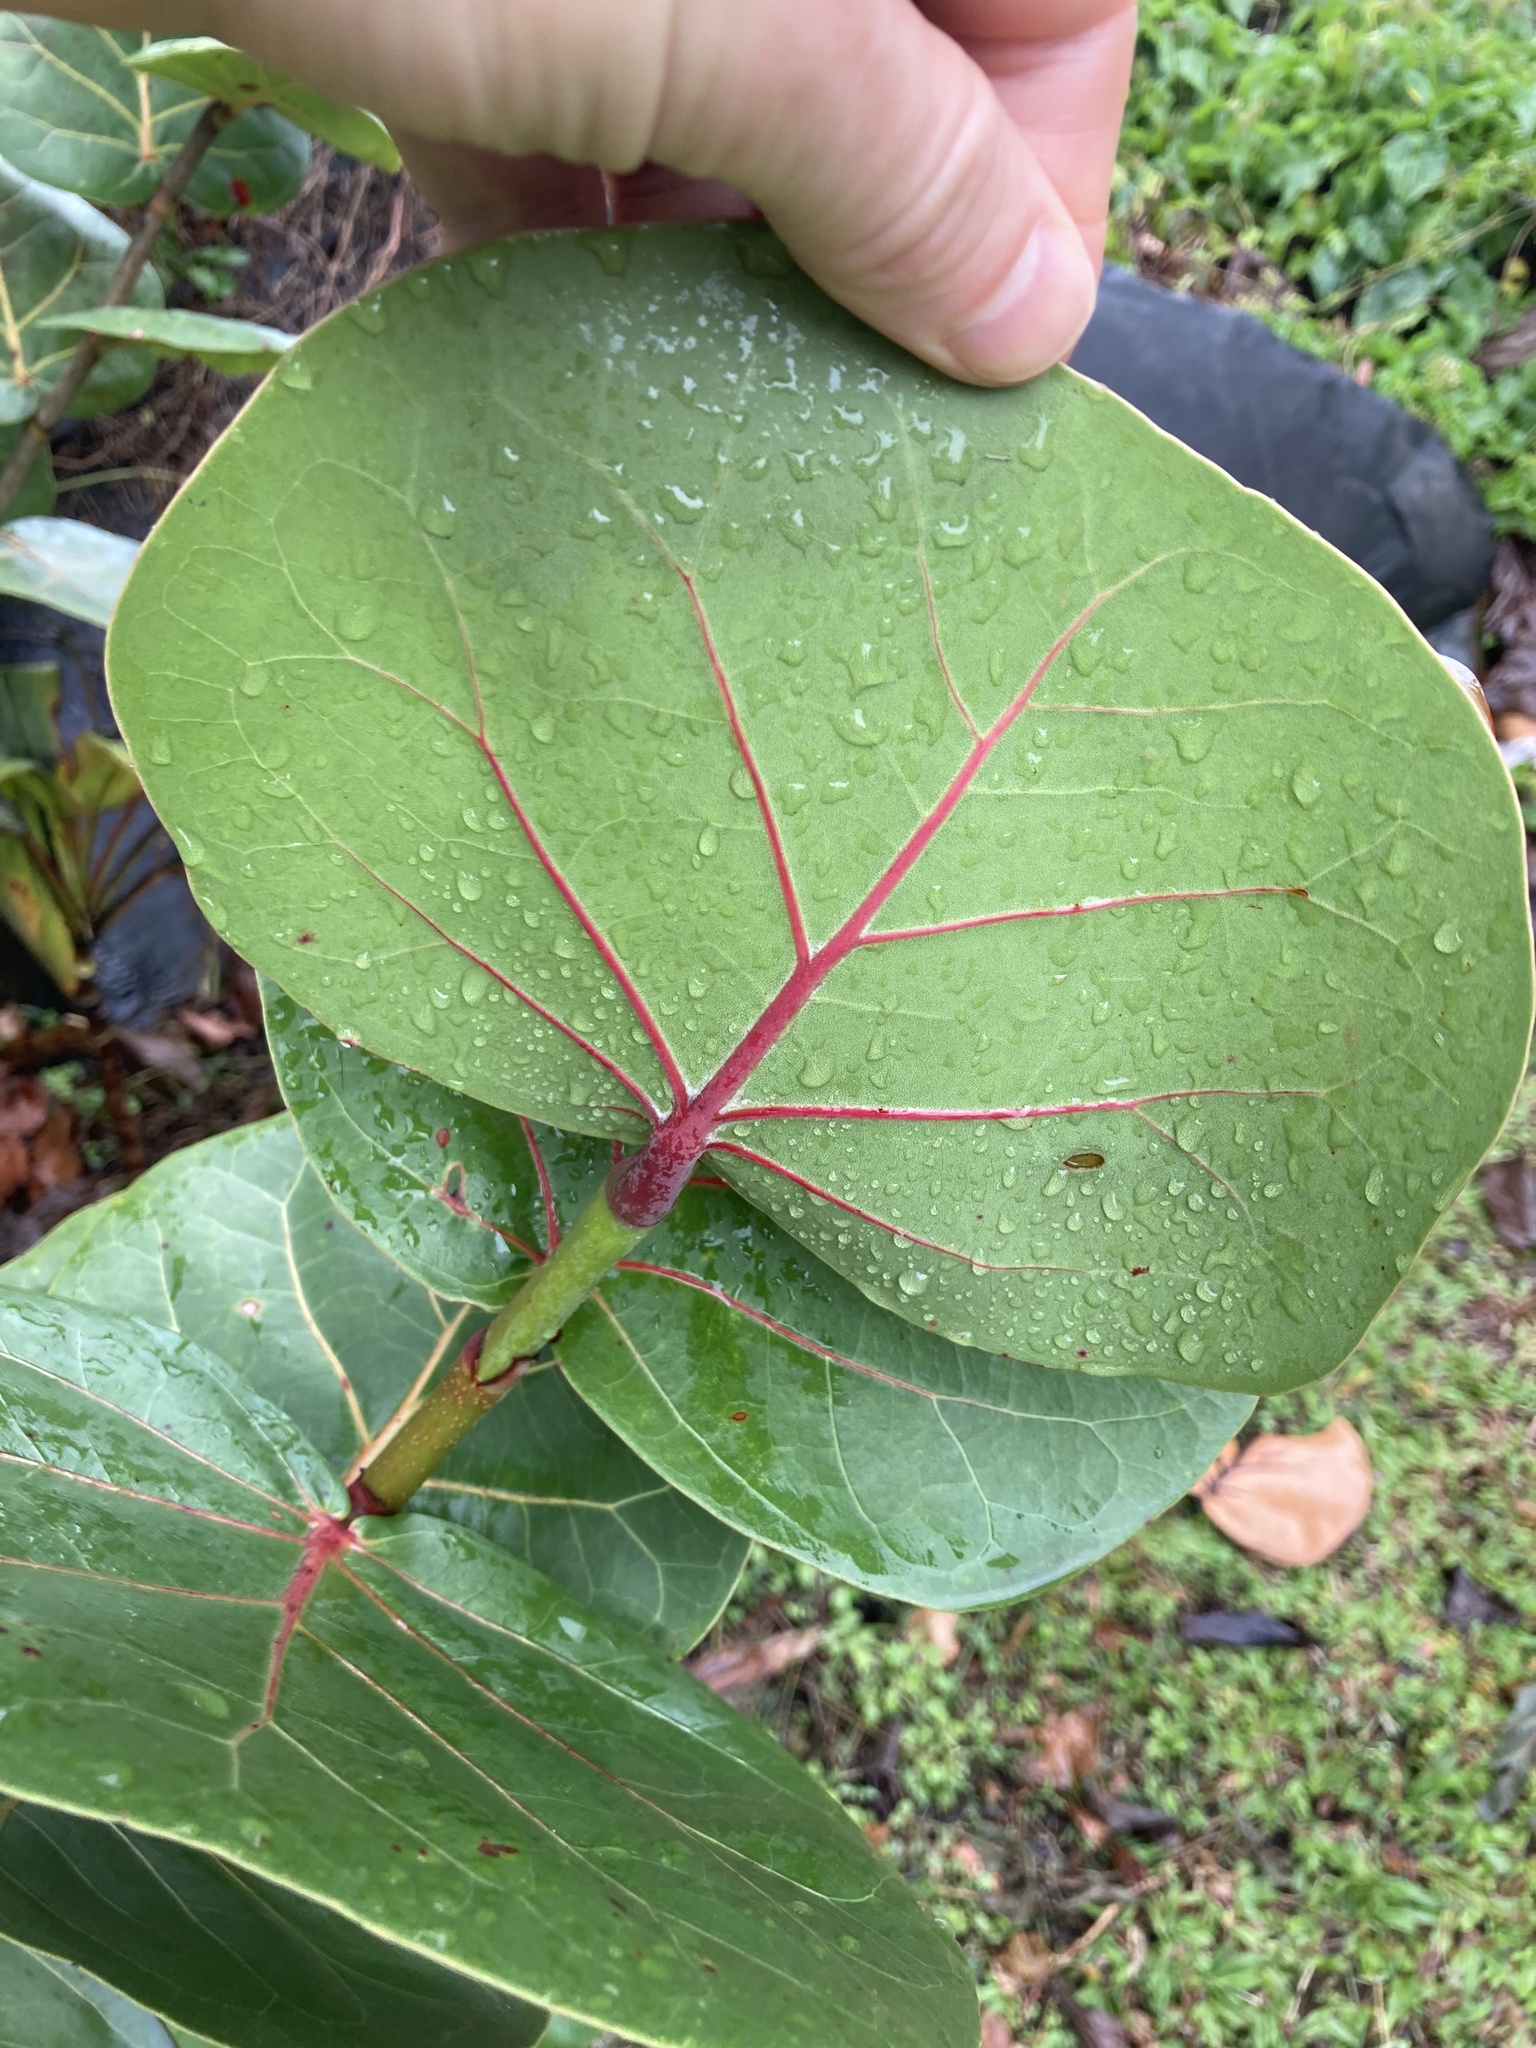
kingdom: Plantae
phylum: Tracheophyta
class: Magnoliopsida
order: Caryophyllales
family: Polygonaceae
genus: Coccoloba
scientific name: Coccoloba uvifera
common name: Seagrape
